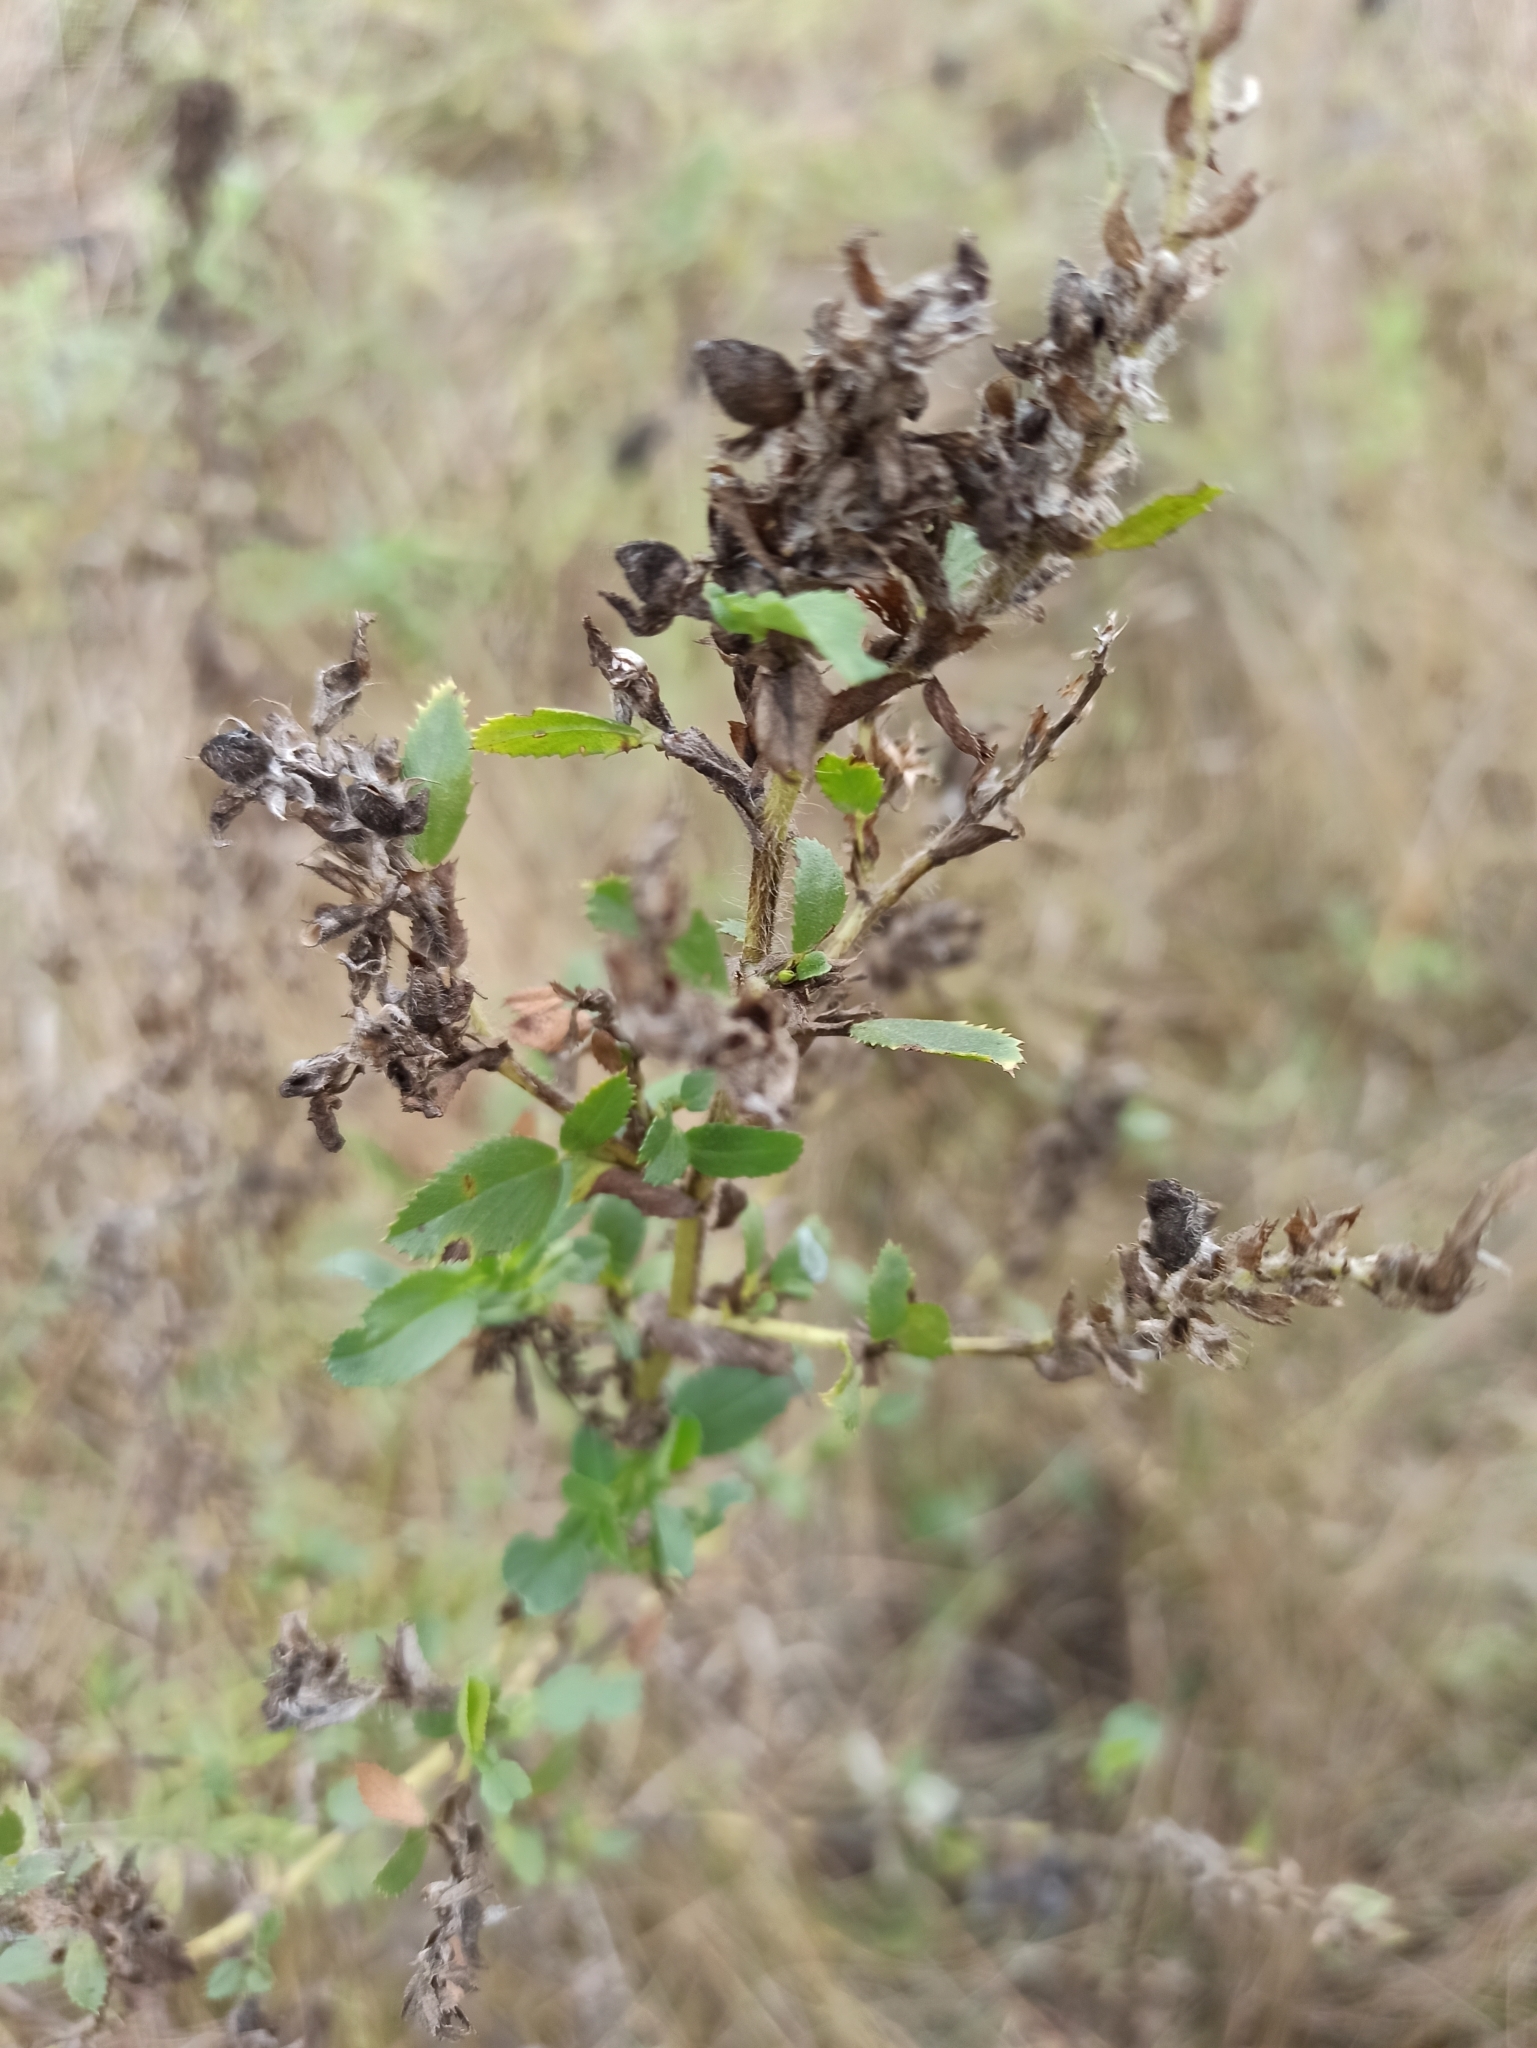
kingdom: Plantae
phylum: Tracheophyta
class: Magnoliopsida
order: Fabales
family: Fabaceae
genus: Ononis
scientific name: Ononis arvensis
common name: Field restharrow
